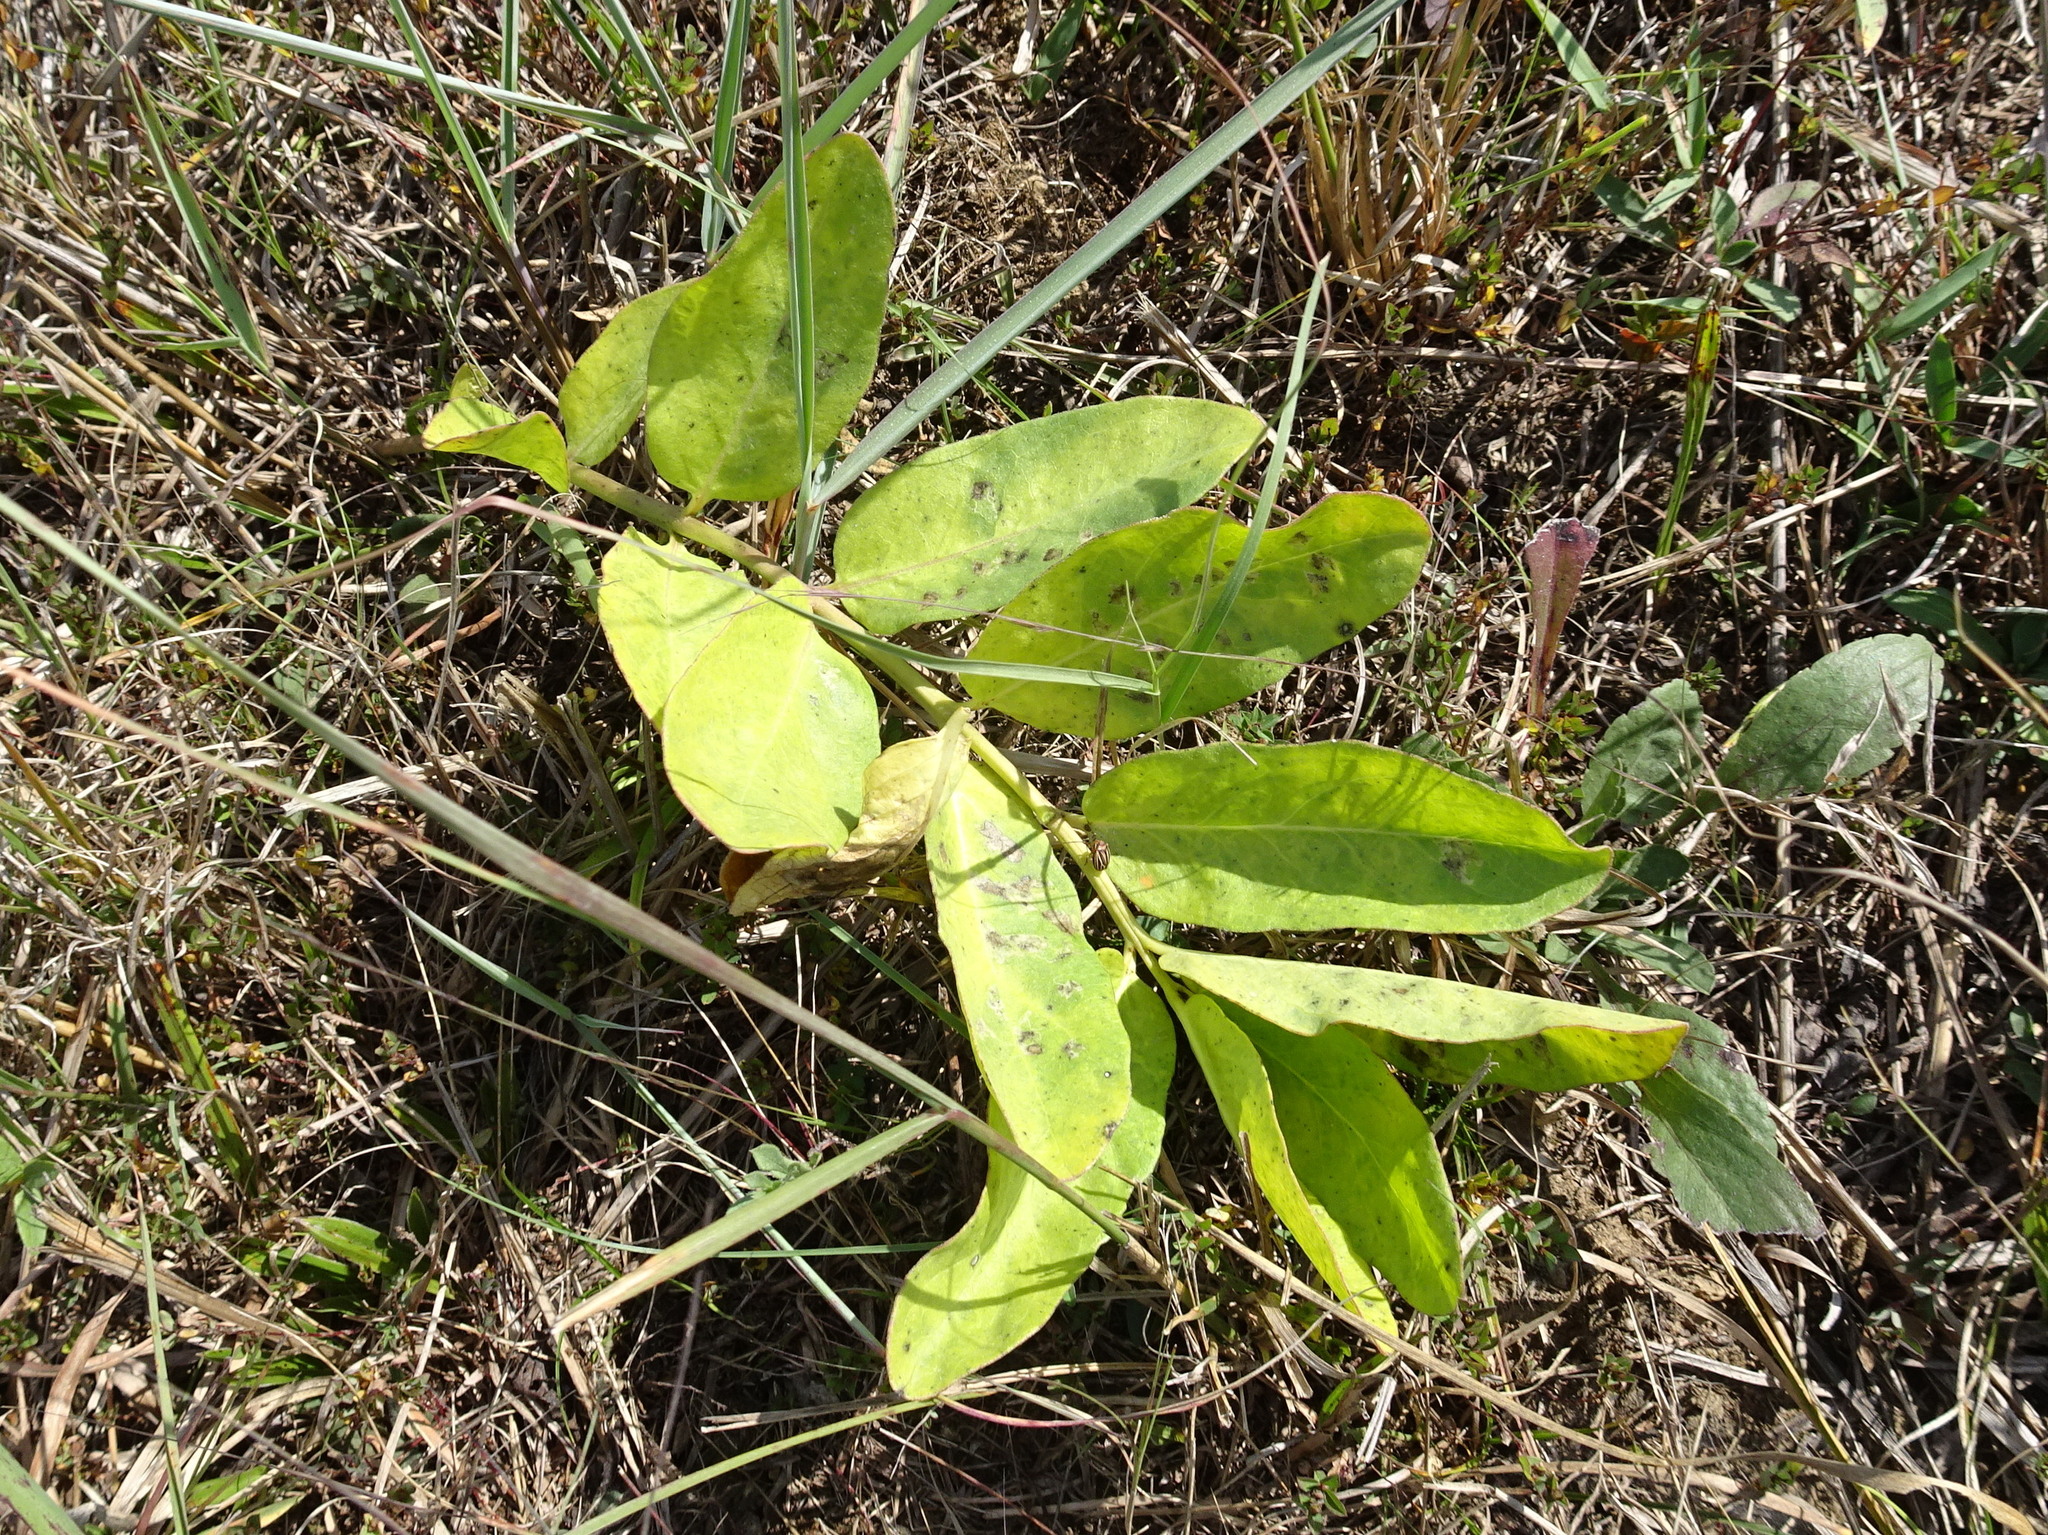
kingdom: Plantae
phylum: Tracheophyta
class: Magnoliopsida
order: Gentianales
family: Apocynaceae
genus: Asclepias
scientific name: Asclepias viridis
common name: Antelope-horns
